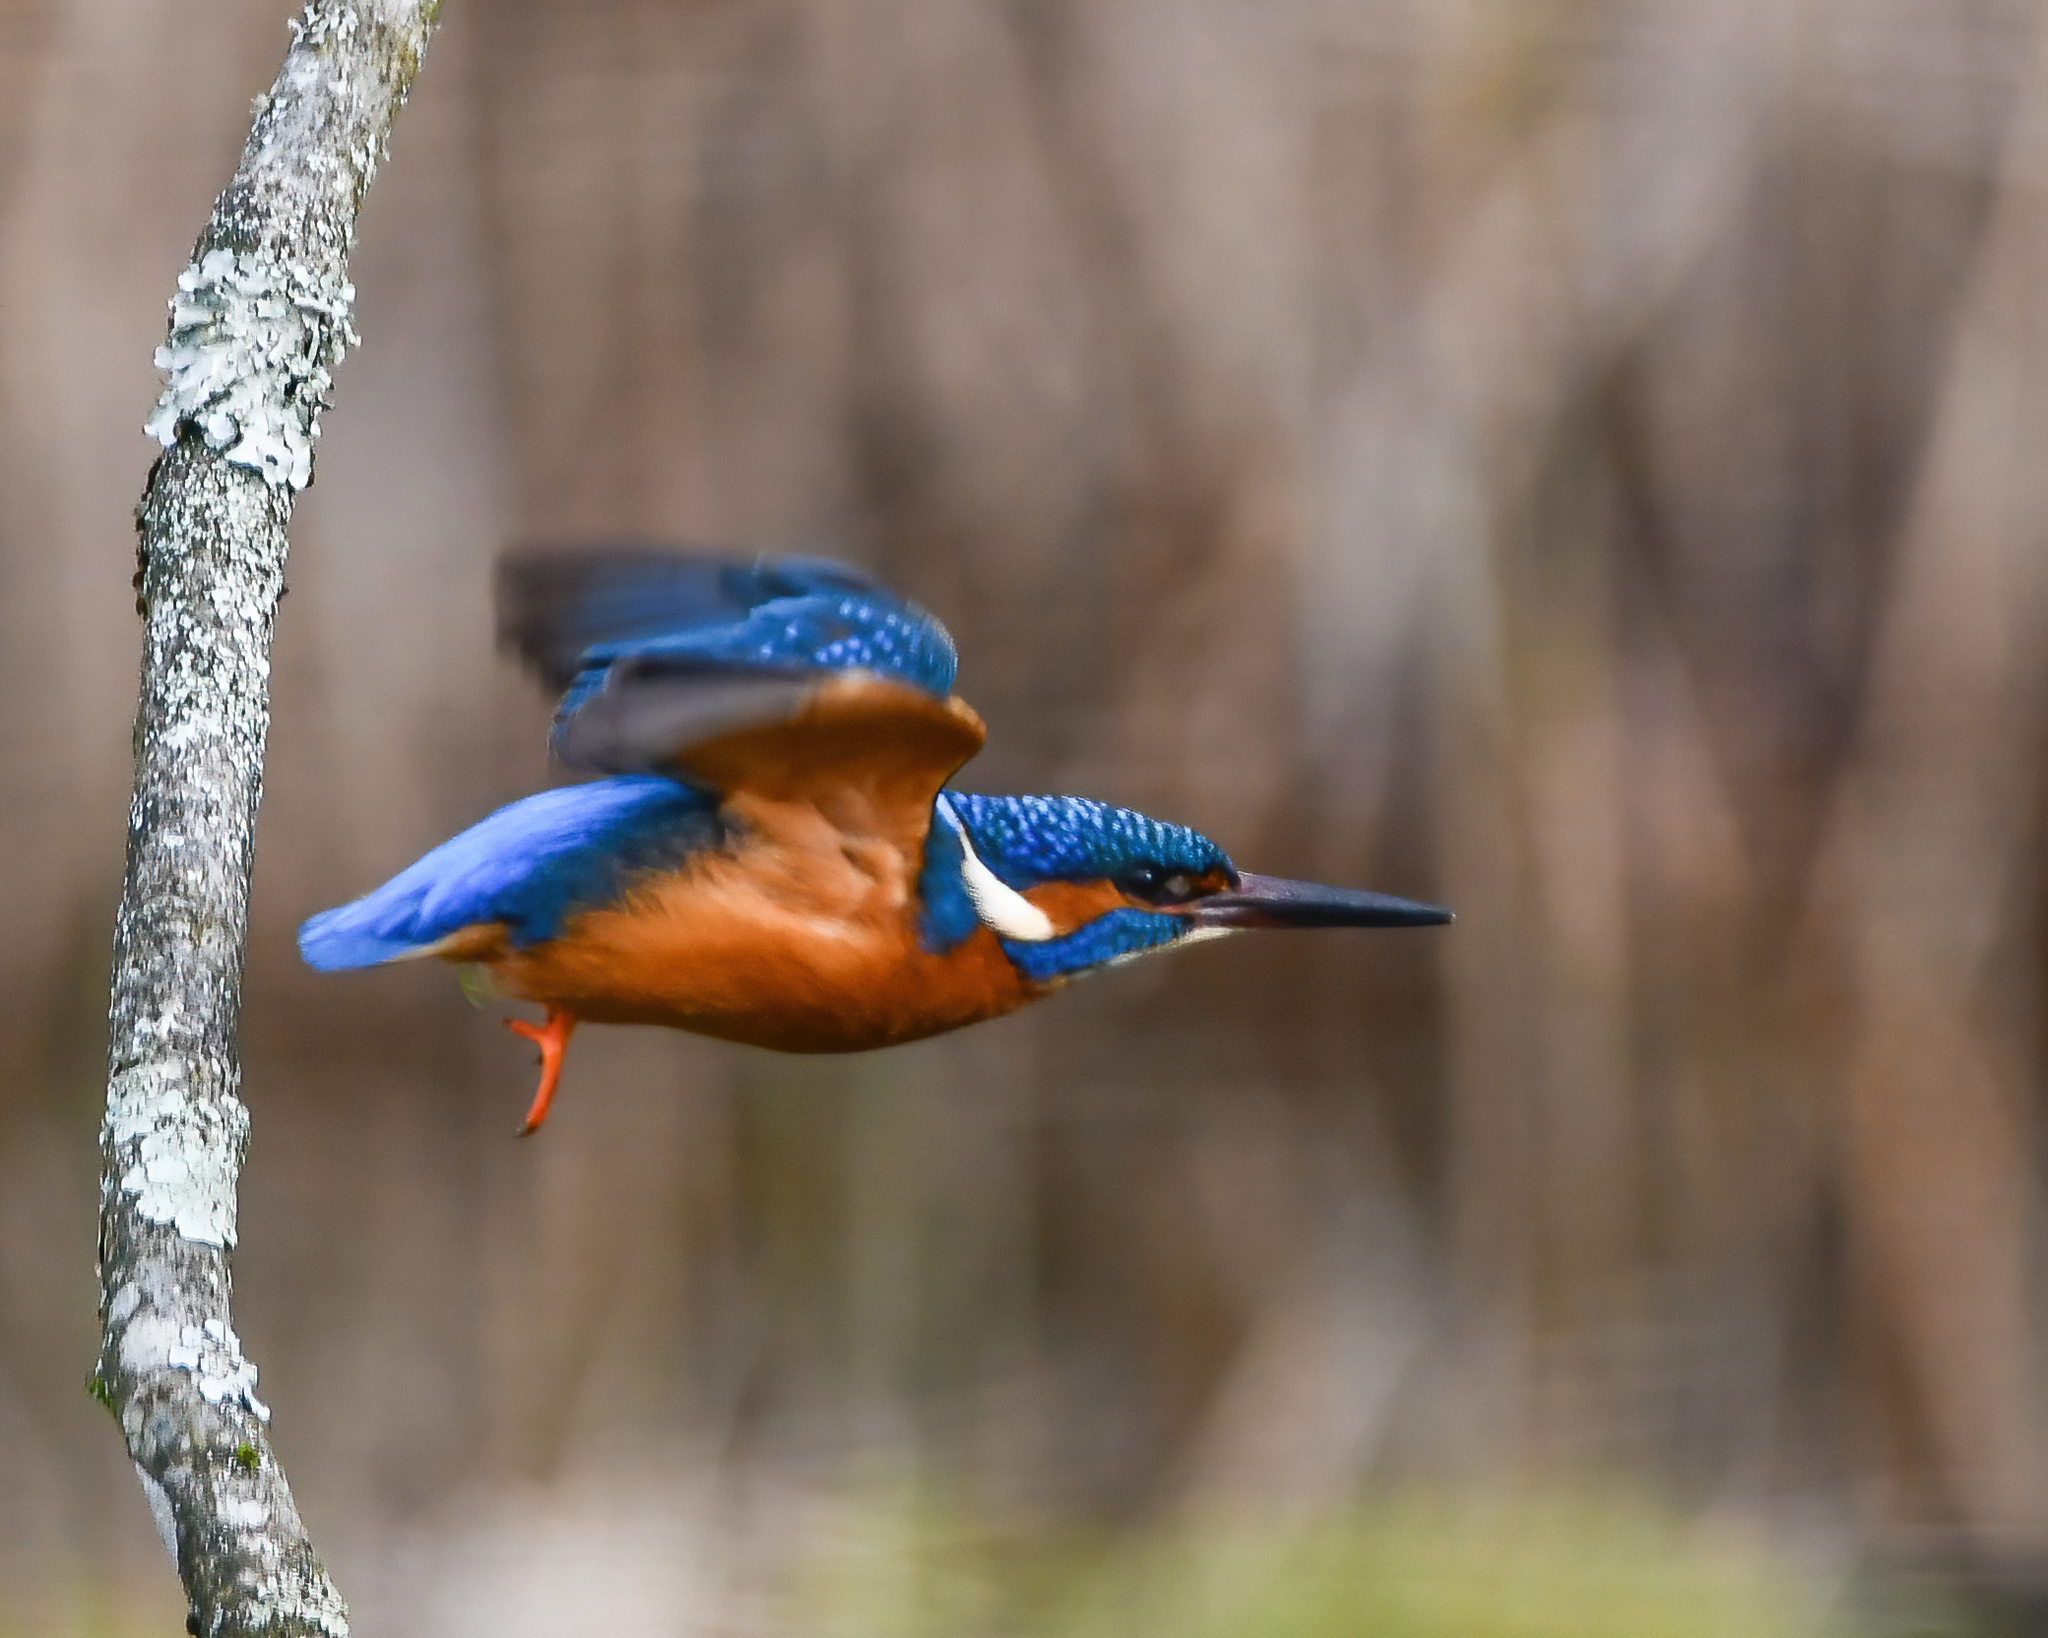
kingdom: Animalia
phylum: Chordata
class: Aves
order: Coraciiformes
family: Alcedinidae
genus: Alcedo
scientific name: Alcedo atthis
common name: Common kingfisher
